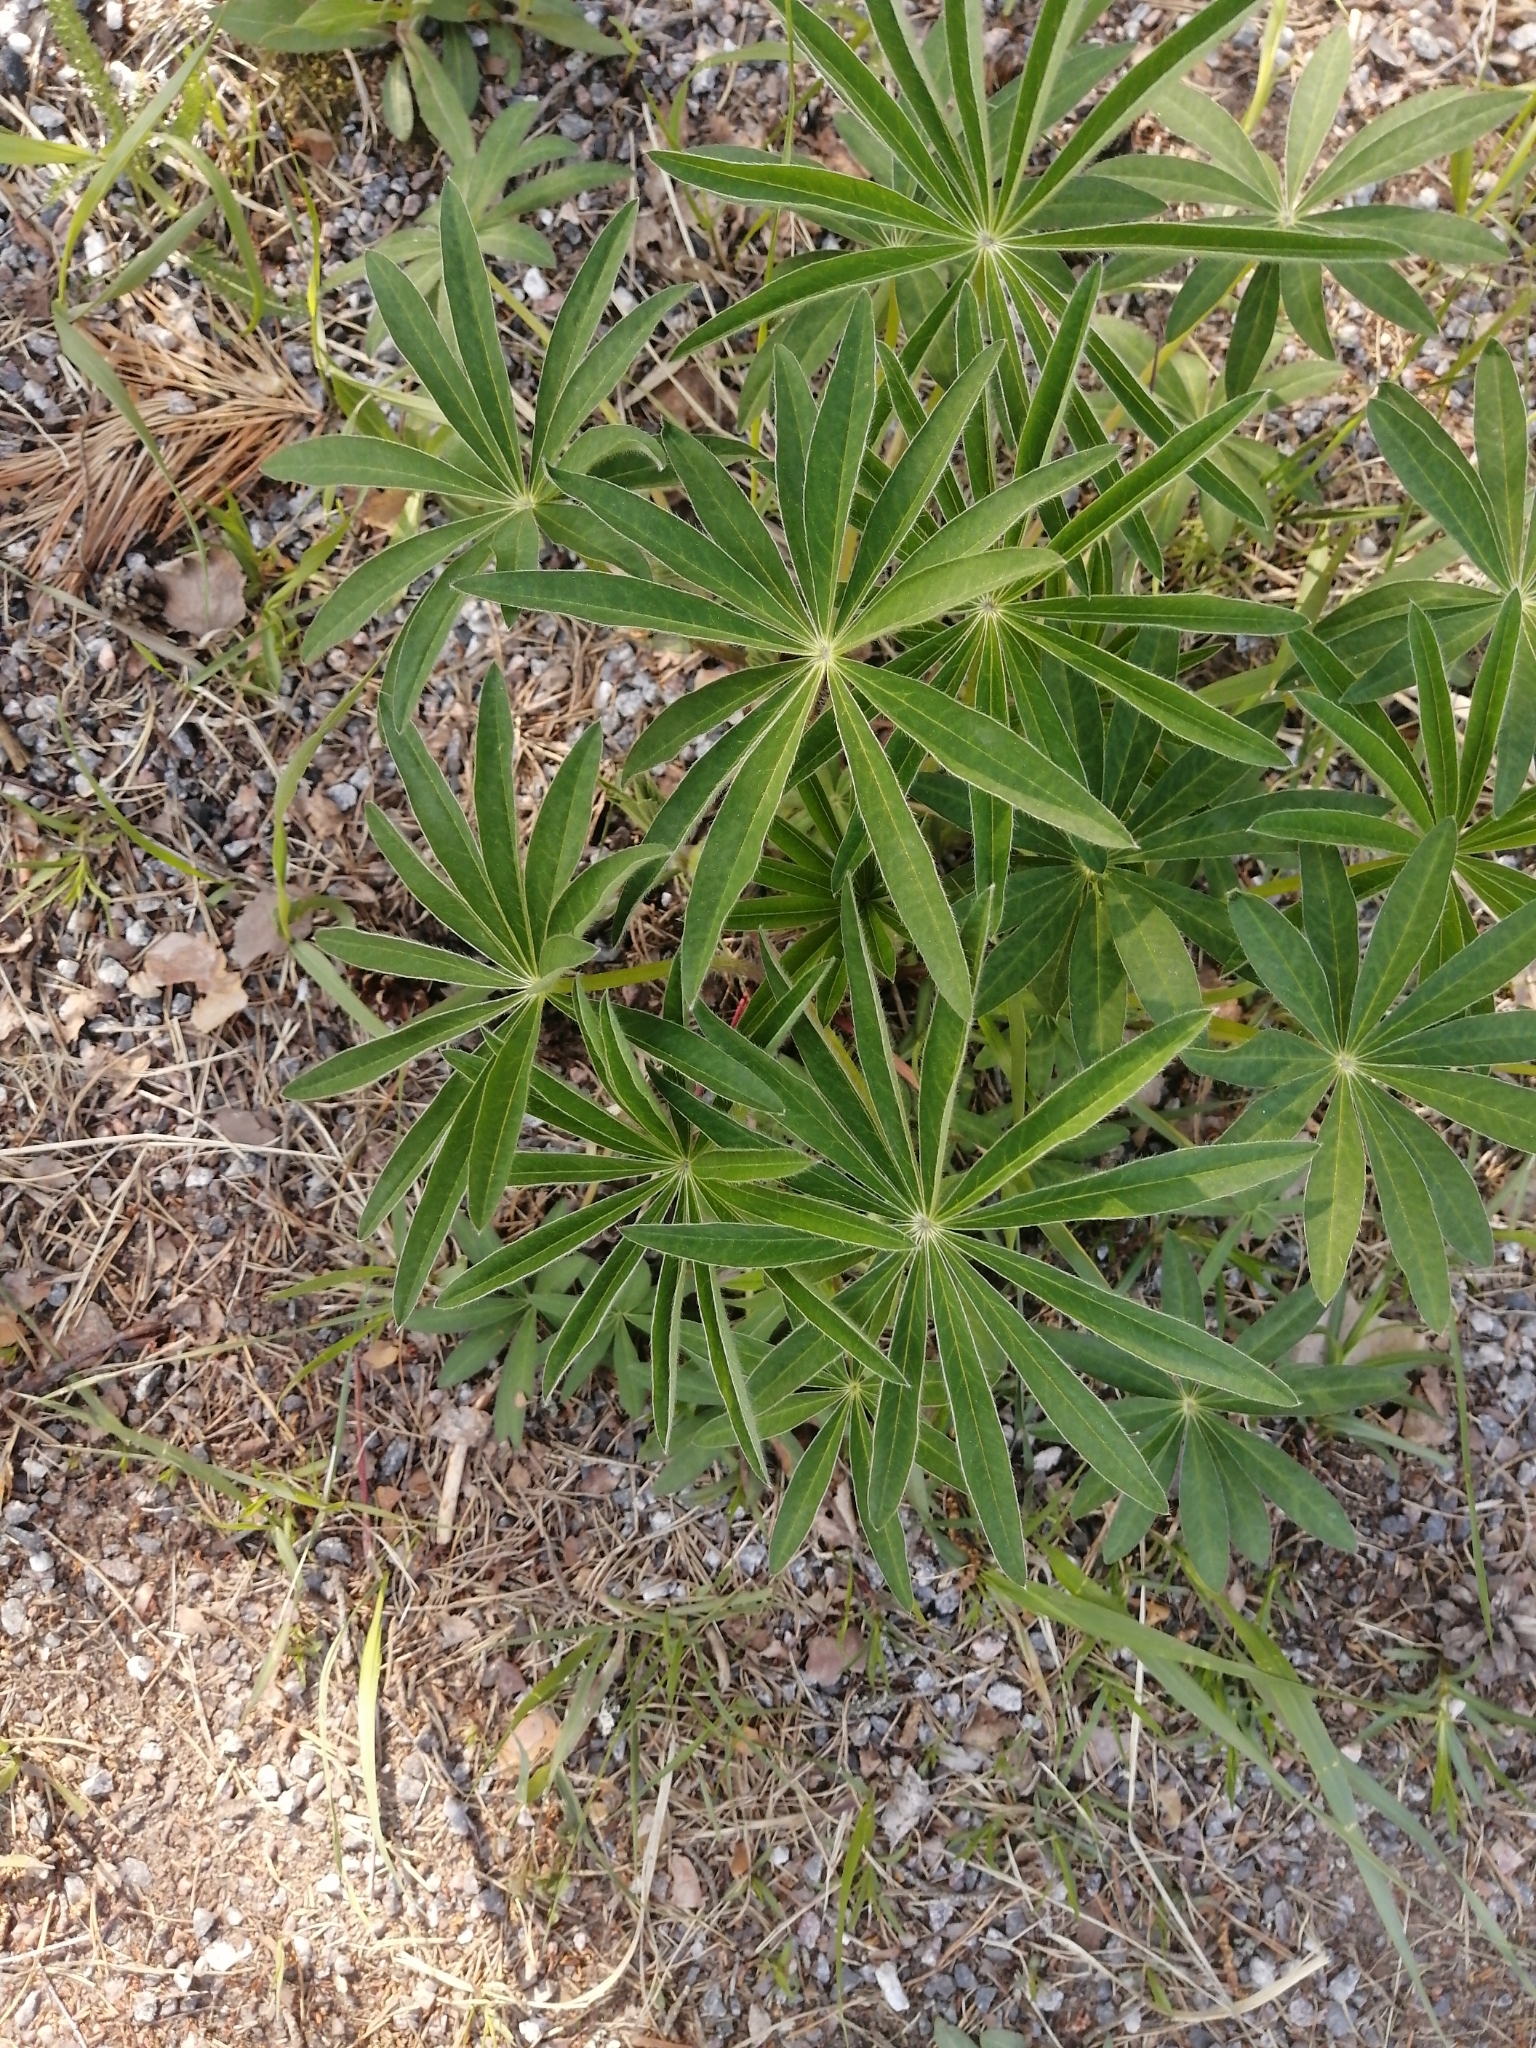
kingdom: Plantae
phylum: Tracheophyta
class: Magnoliopsida
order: Fabales
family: Fabaceae
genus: Lupinus
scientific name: Lupinus polyphyllus
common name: Garden lupin
